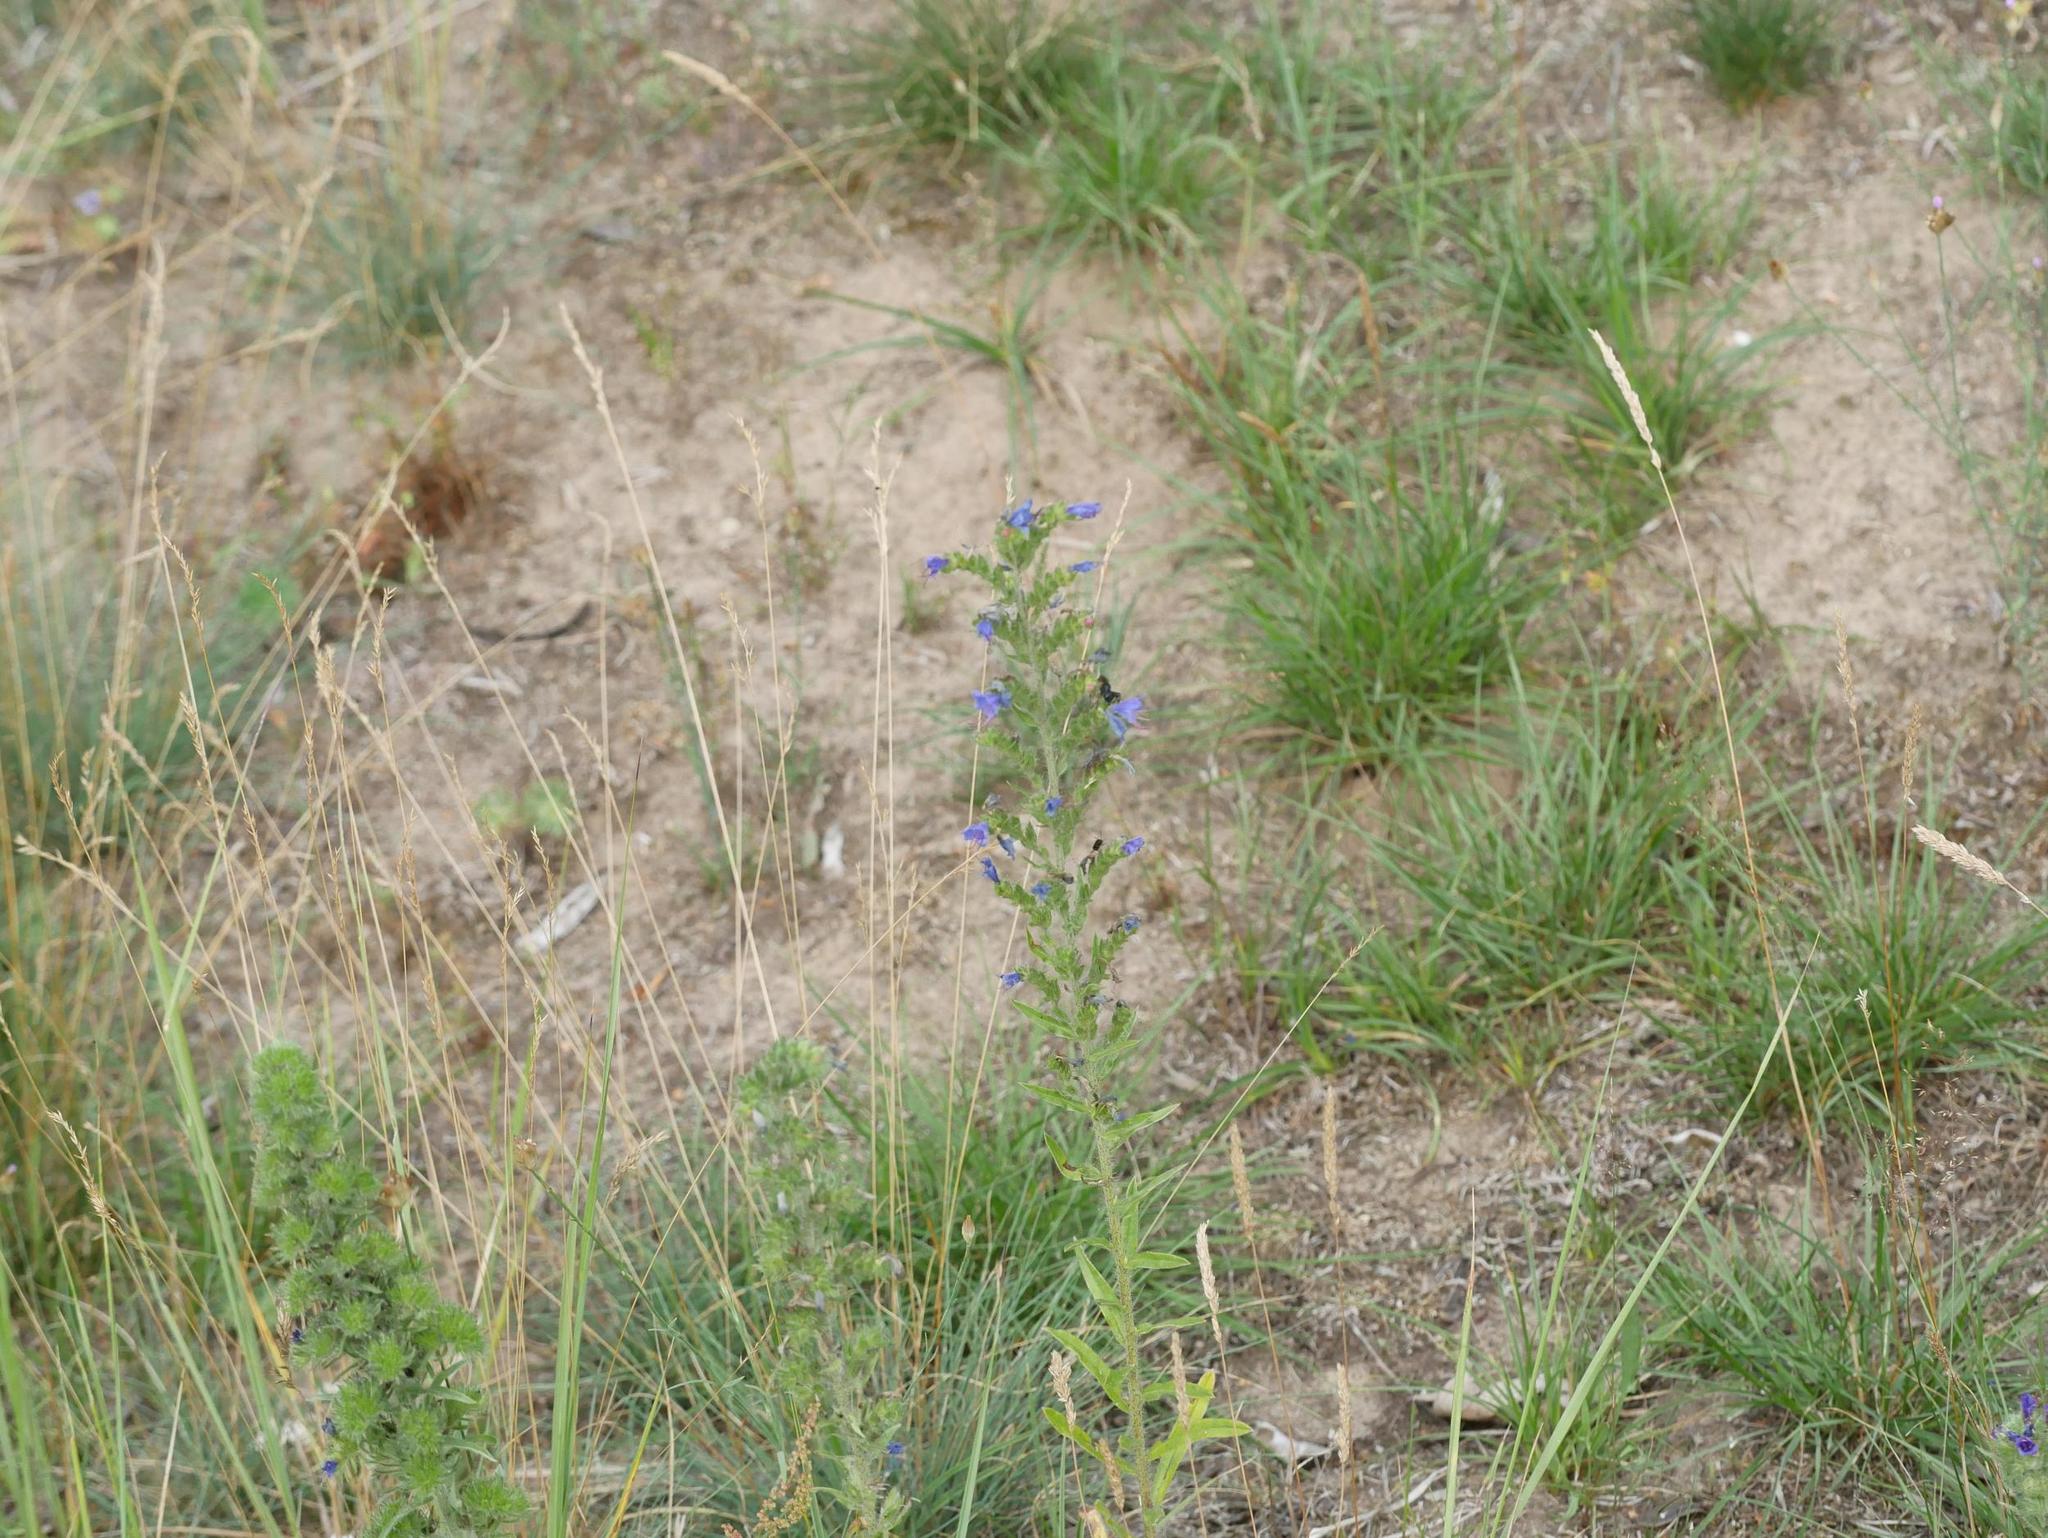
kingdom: Plantae
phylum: Tracheophyta
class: Magnoliopsida
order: Boraginales
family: Boraginaceae
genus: Echium
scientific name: Echium vulgare
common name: Common viper's bugloss
